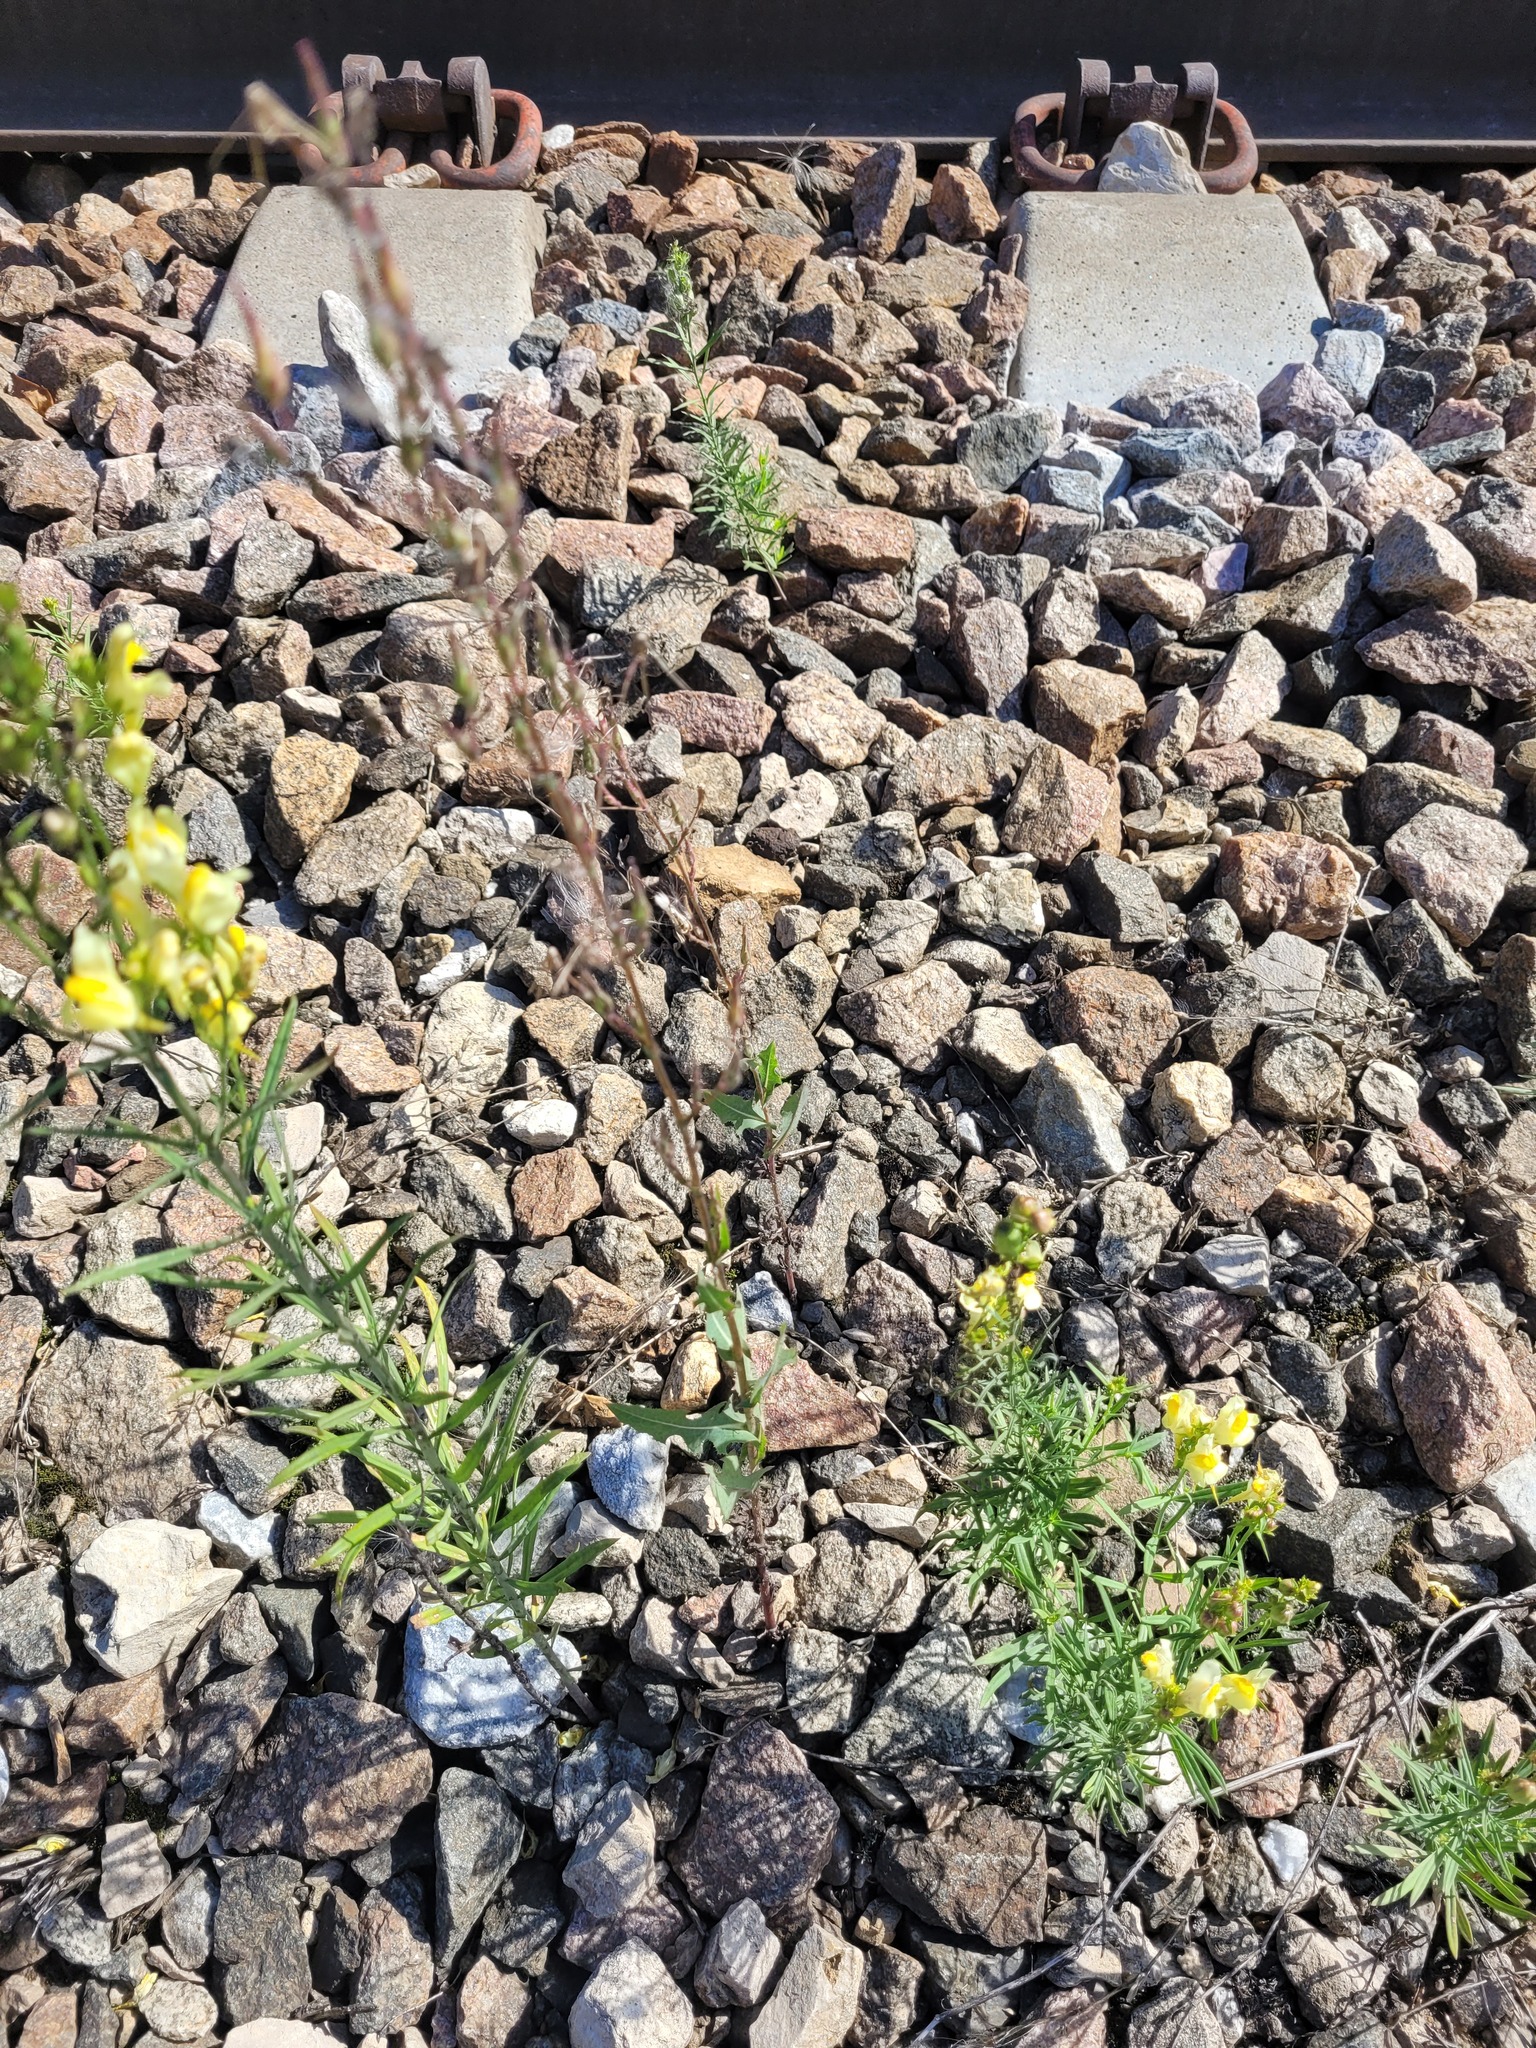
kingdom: Plantae
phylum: Tracheophyta
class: Magnoliopsida
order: Asterales
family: Asteraceae
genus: Lactuca
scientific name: Lactuca serriola
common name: Prickly lettuce
